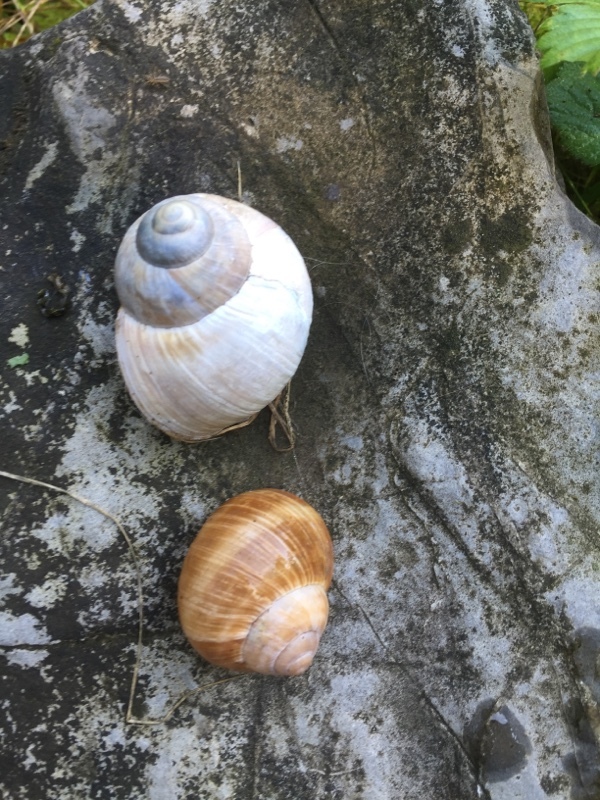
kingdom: Animalia
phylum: Mollusca
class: Gastropoda
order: Stylommatophora
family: Helicidae
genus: Helix
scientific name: Helix pomatia
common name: Roman snail
